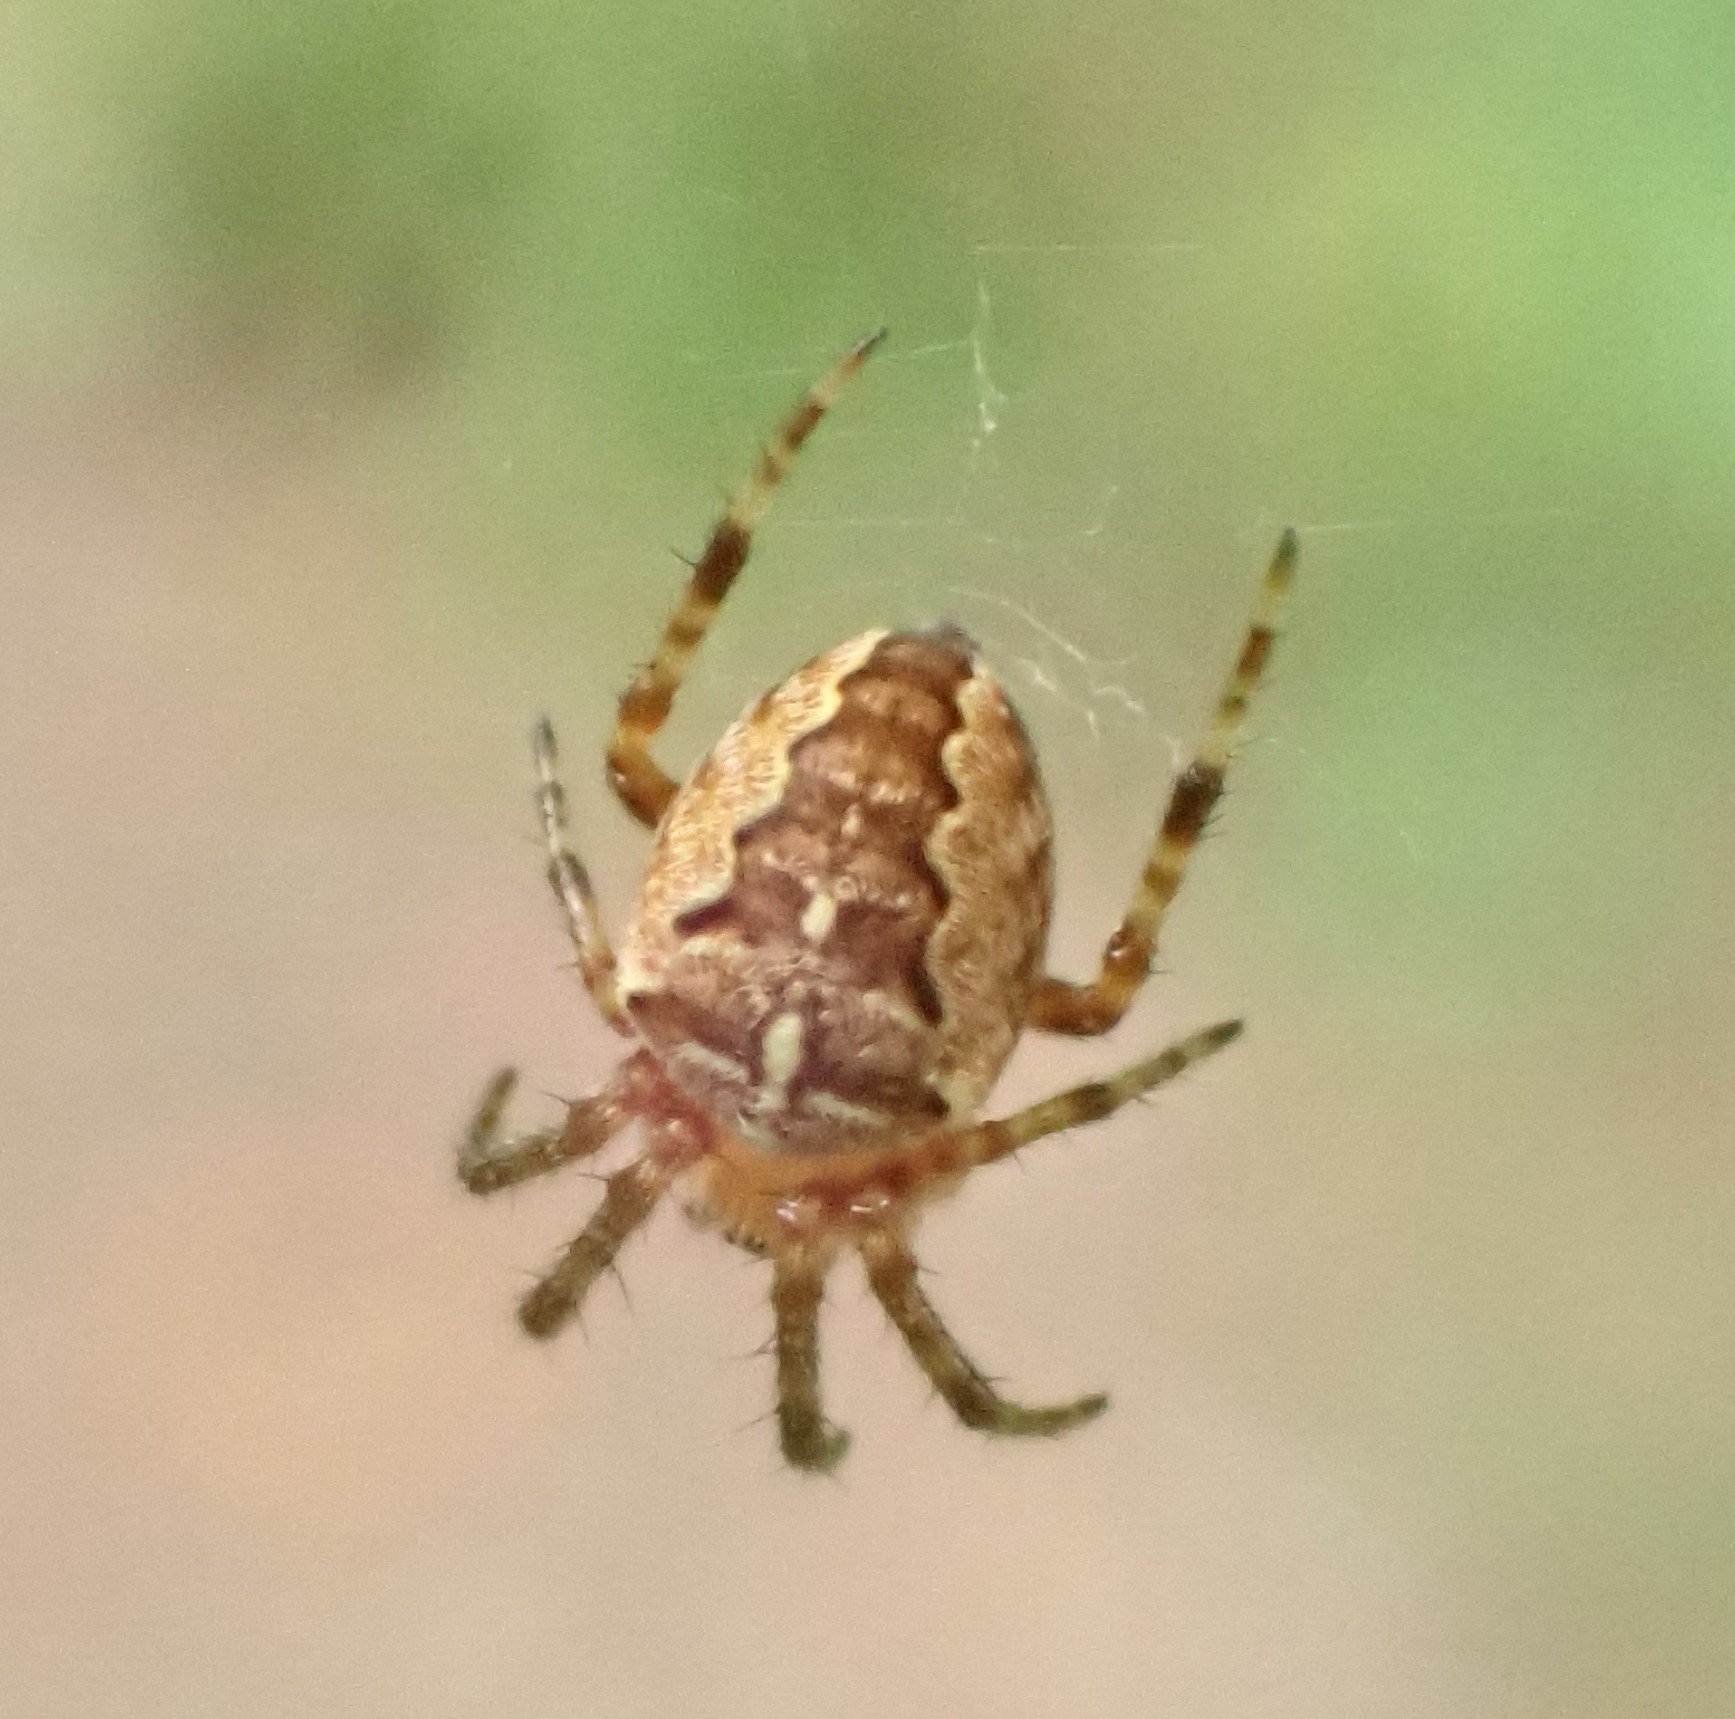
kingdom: Animalia
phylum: Arthropoda
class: Arachnida
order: Araneae
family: Araneidae
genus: Araneus
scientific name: Araneus diadematus
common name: Cross orbweaver
